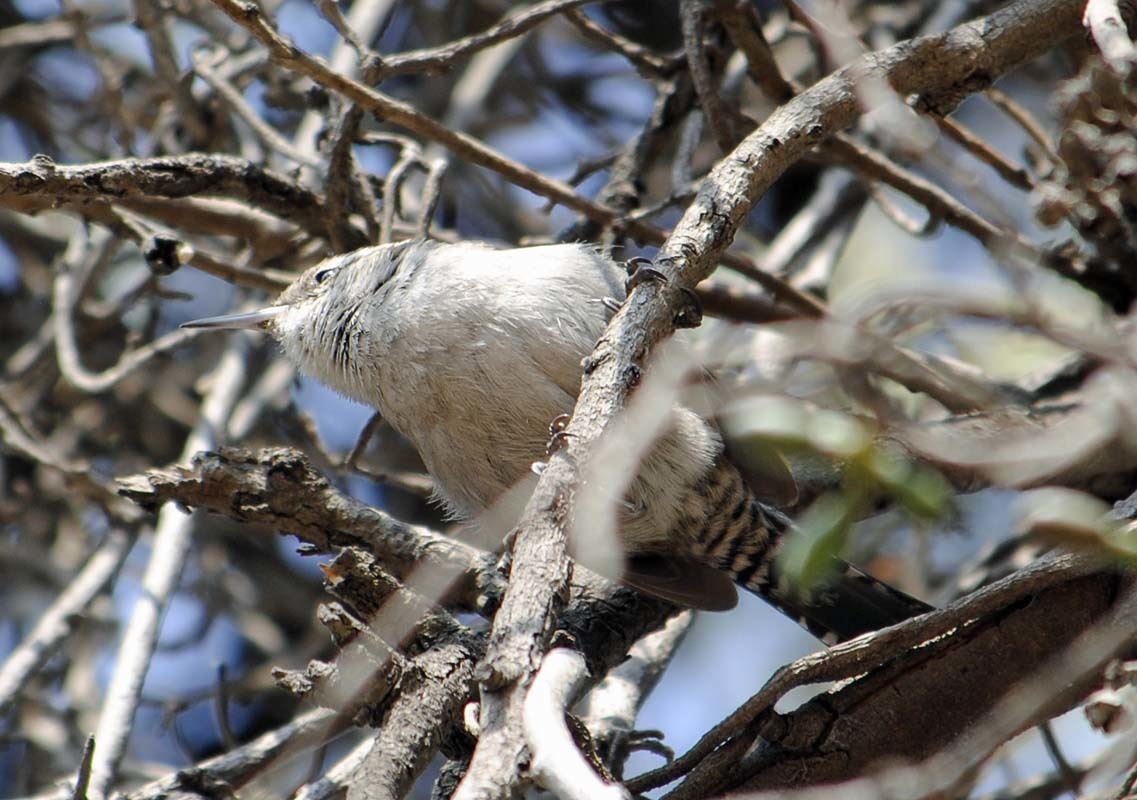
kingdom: Animalia
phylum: Chordata
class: Aves
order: Passeriformes
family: Troglodytidae
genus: Thryomanes
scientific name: Thryomanes bewickii
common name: Bewick's wren
